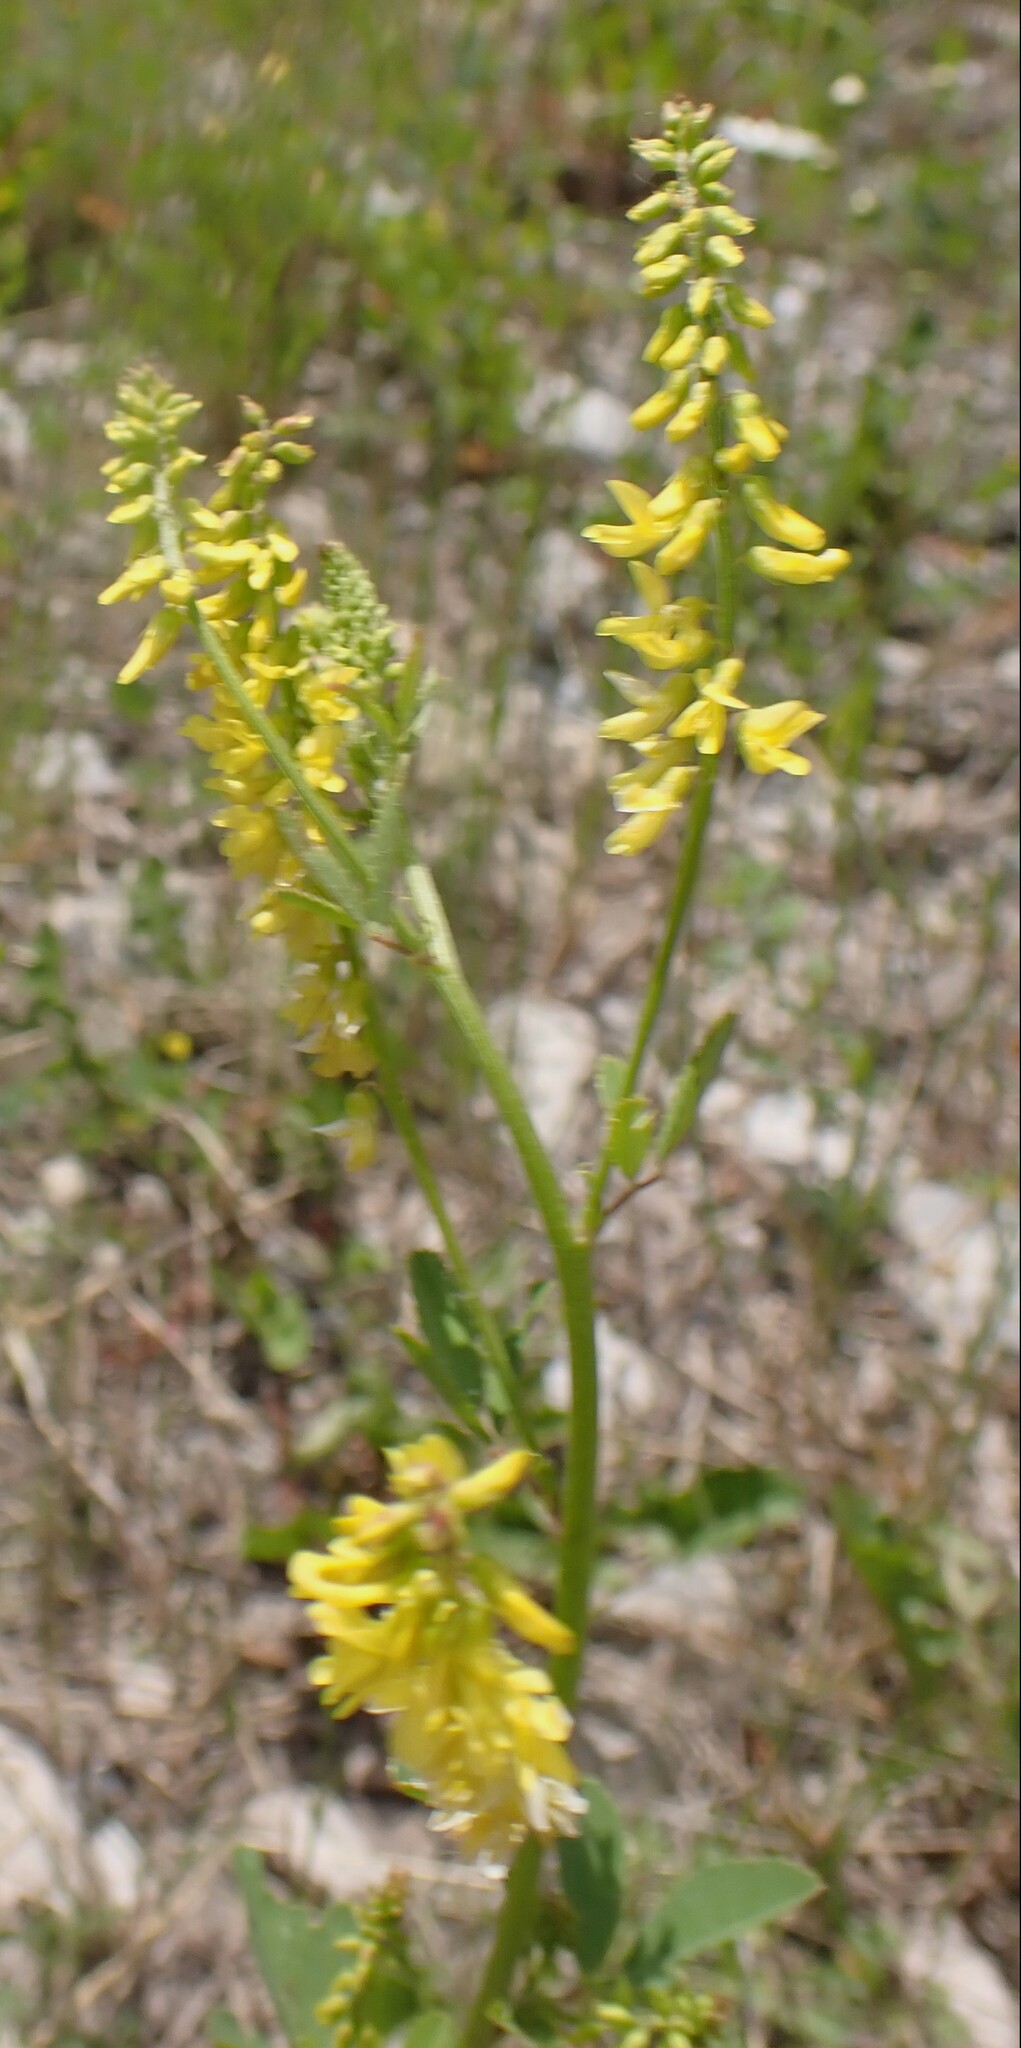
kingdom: Plantae
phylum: Tracheophyta
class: Magnoliopsida
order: Fabales
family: Fabaceae
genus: Melilotus
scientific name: Melilotus officinalis
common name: Sweetclover
